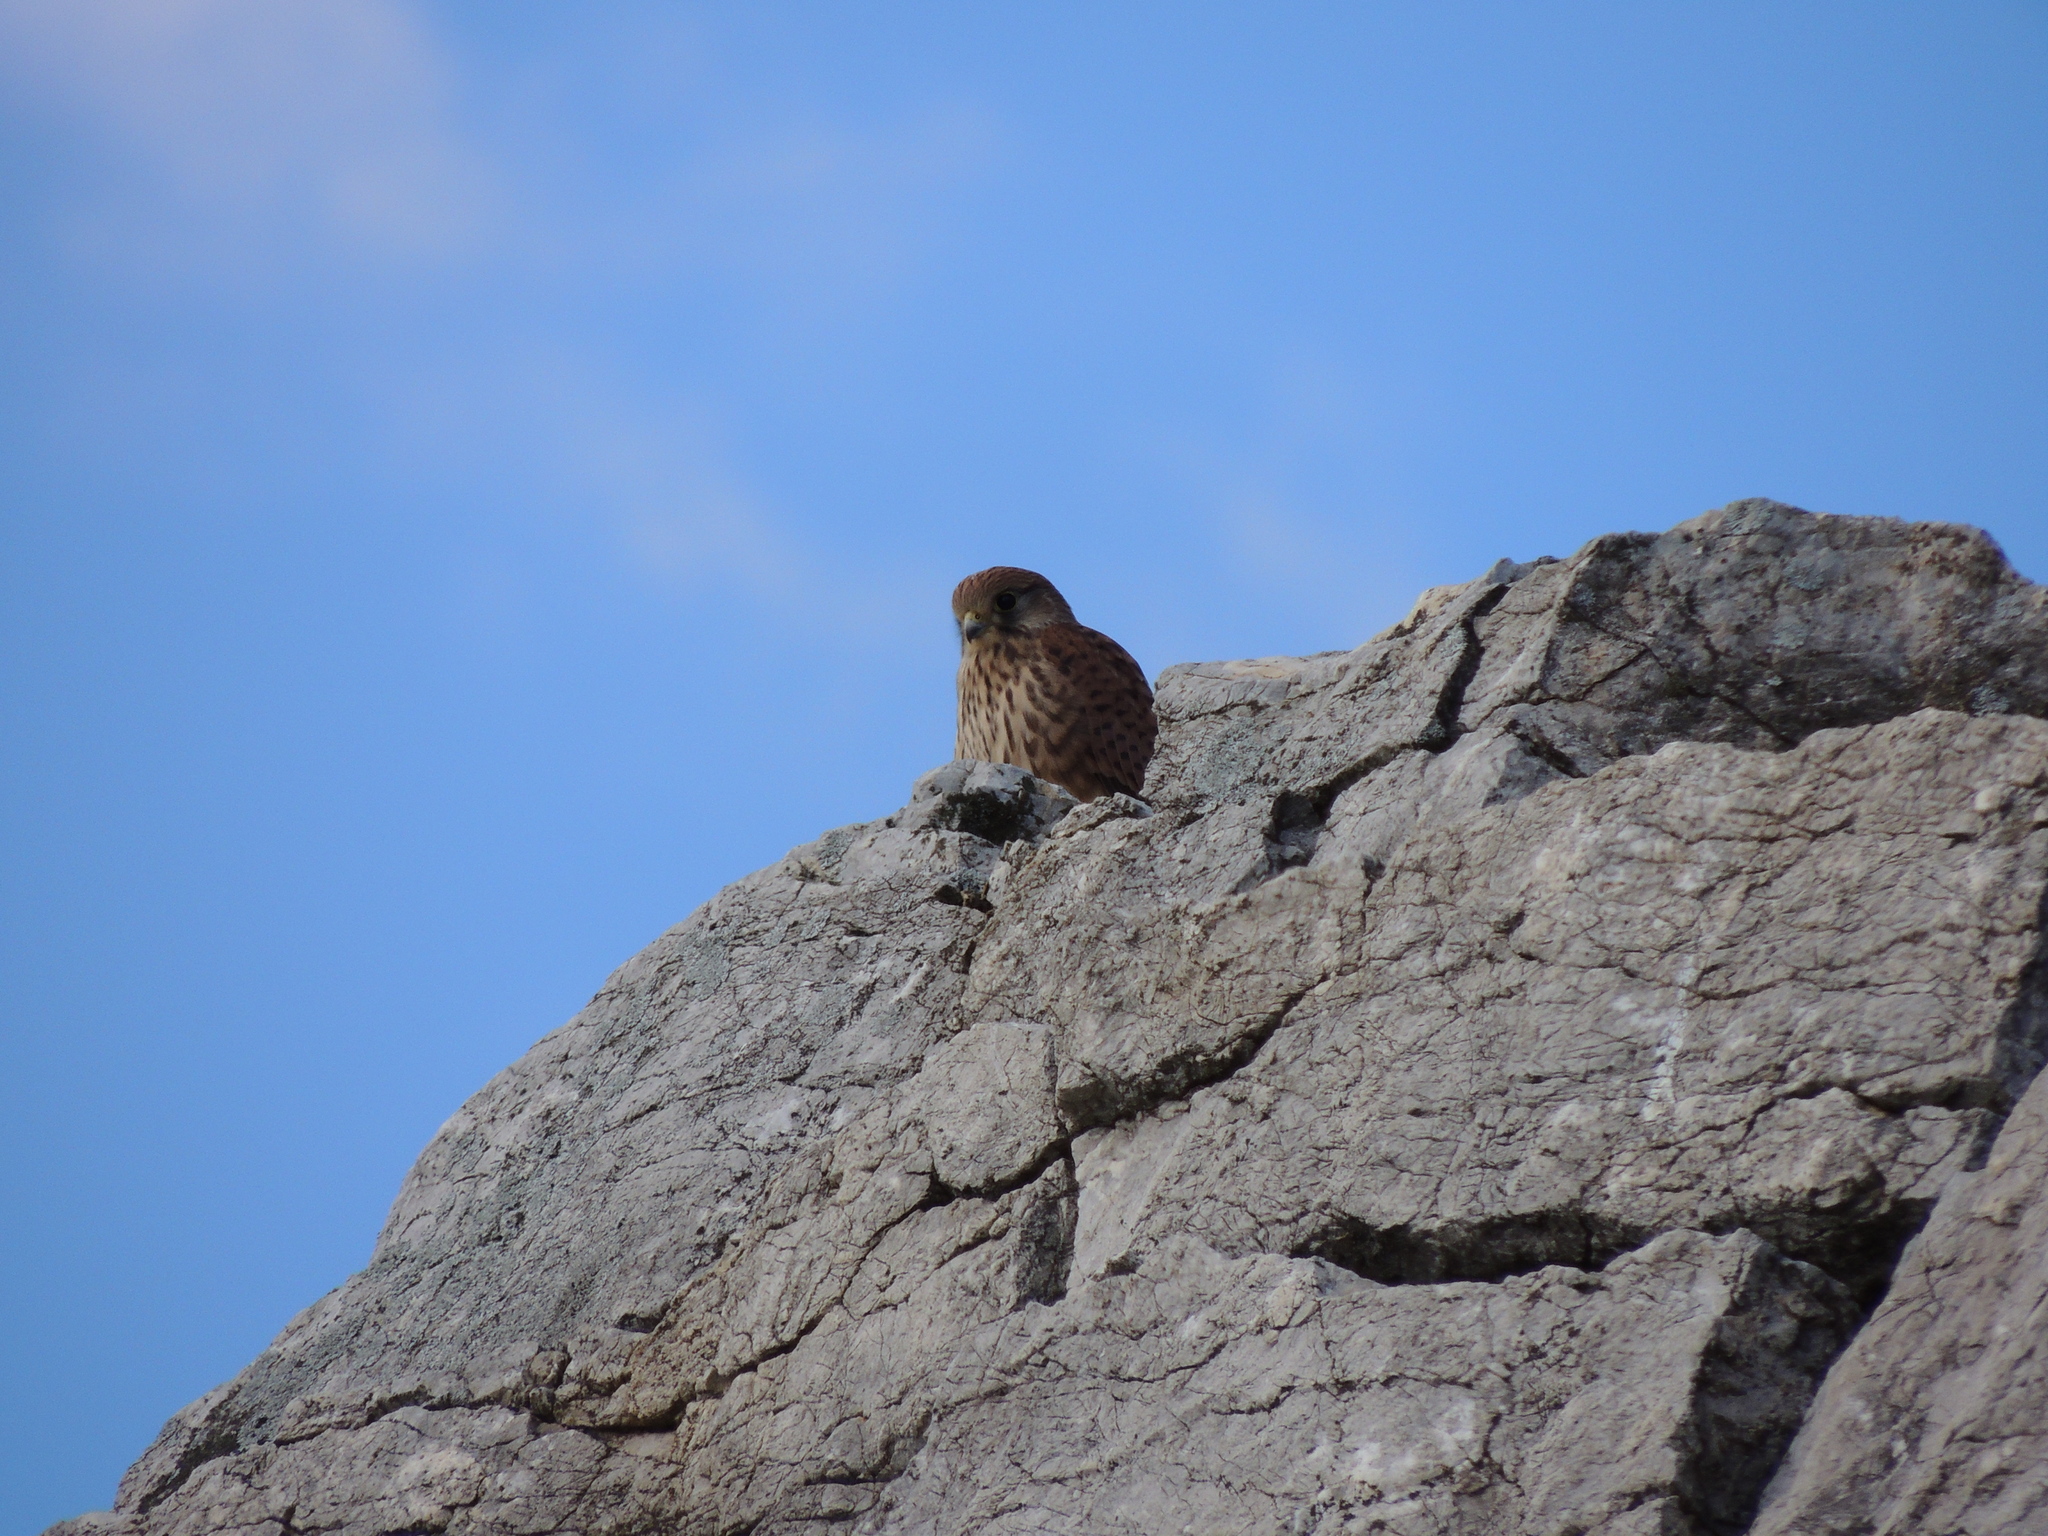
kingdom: Animalia
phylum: Chordata
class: Aves
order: Falconiformes
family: Falconidae
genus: Falco
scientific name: Falco tinnunculus
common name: Common kestrel
